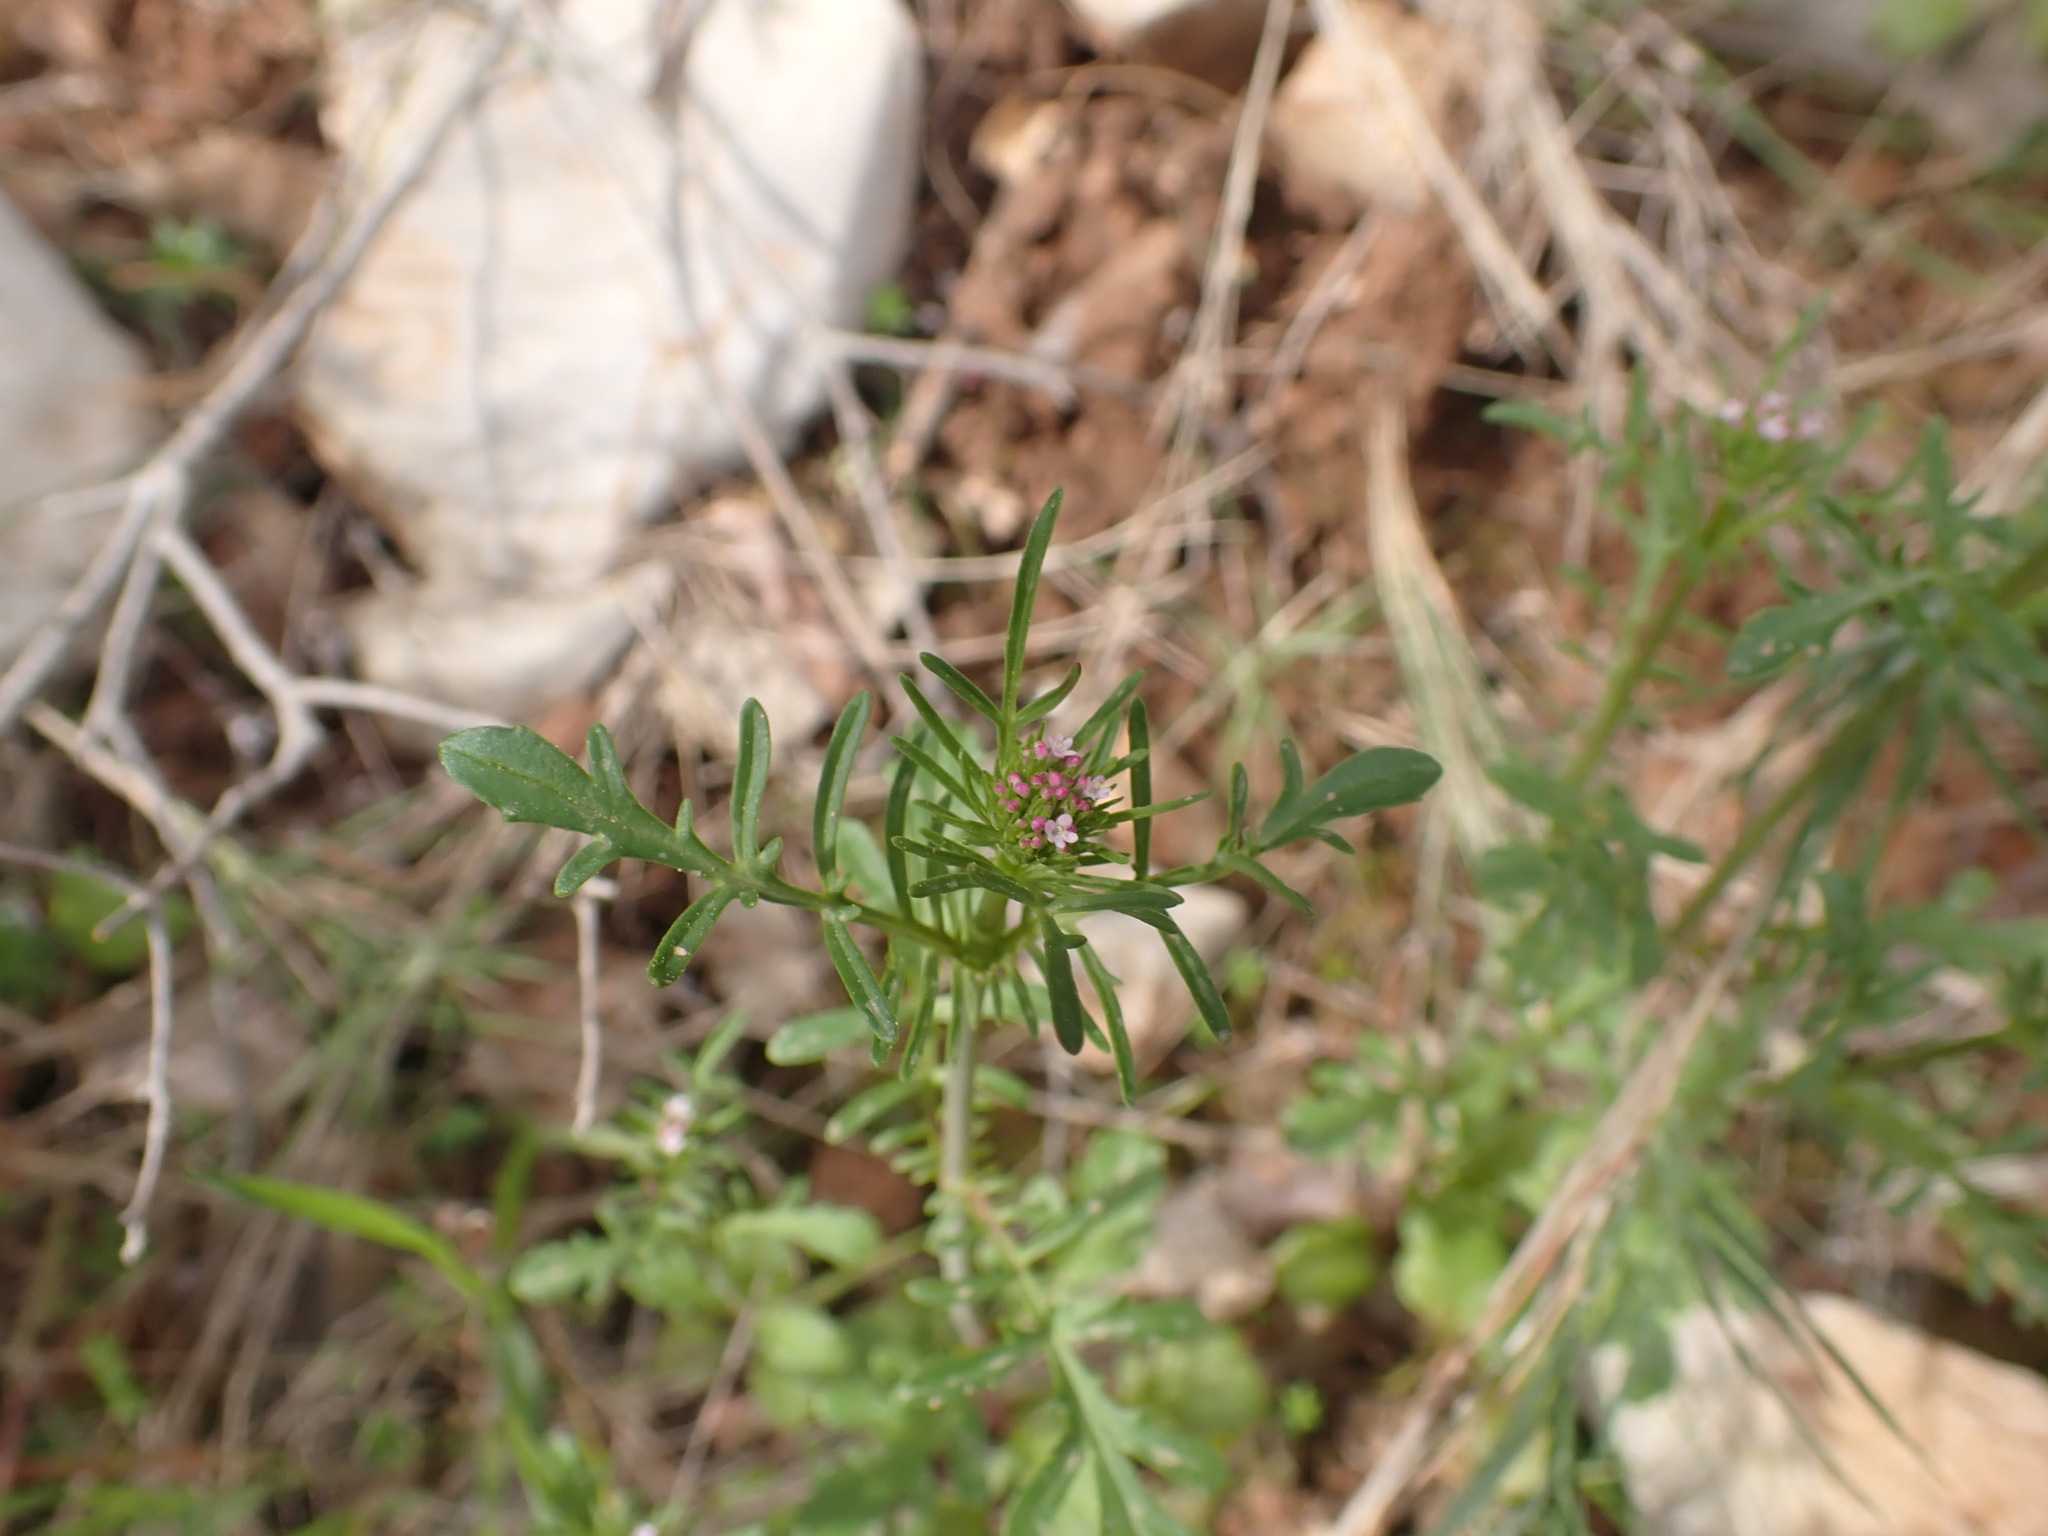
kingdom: Plantae
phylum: Tracheophyta
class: Magnoliopsida
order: Dipsacales
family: Caprifoliaceae
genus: Centranthus
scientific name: Centranthus calcitrapae
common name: Annual valerian
